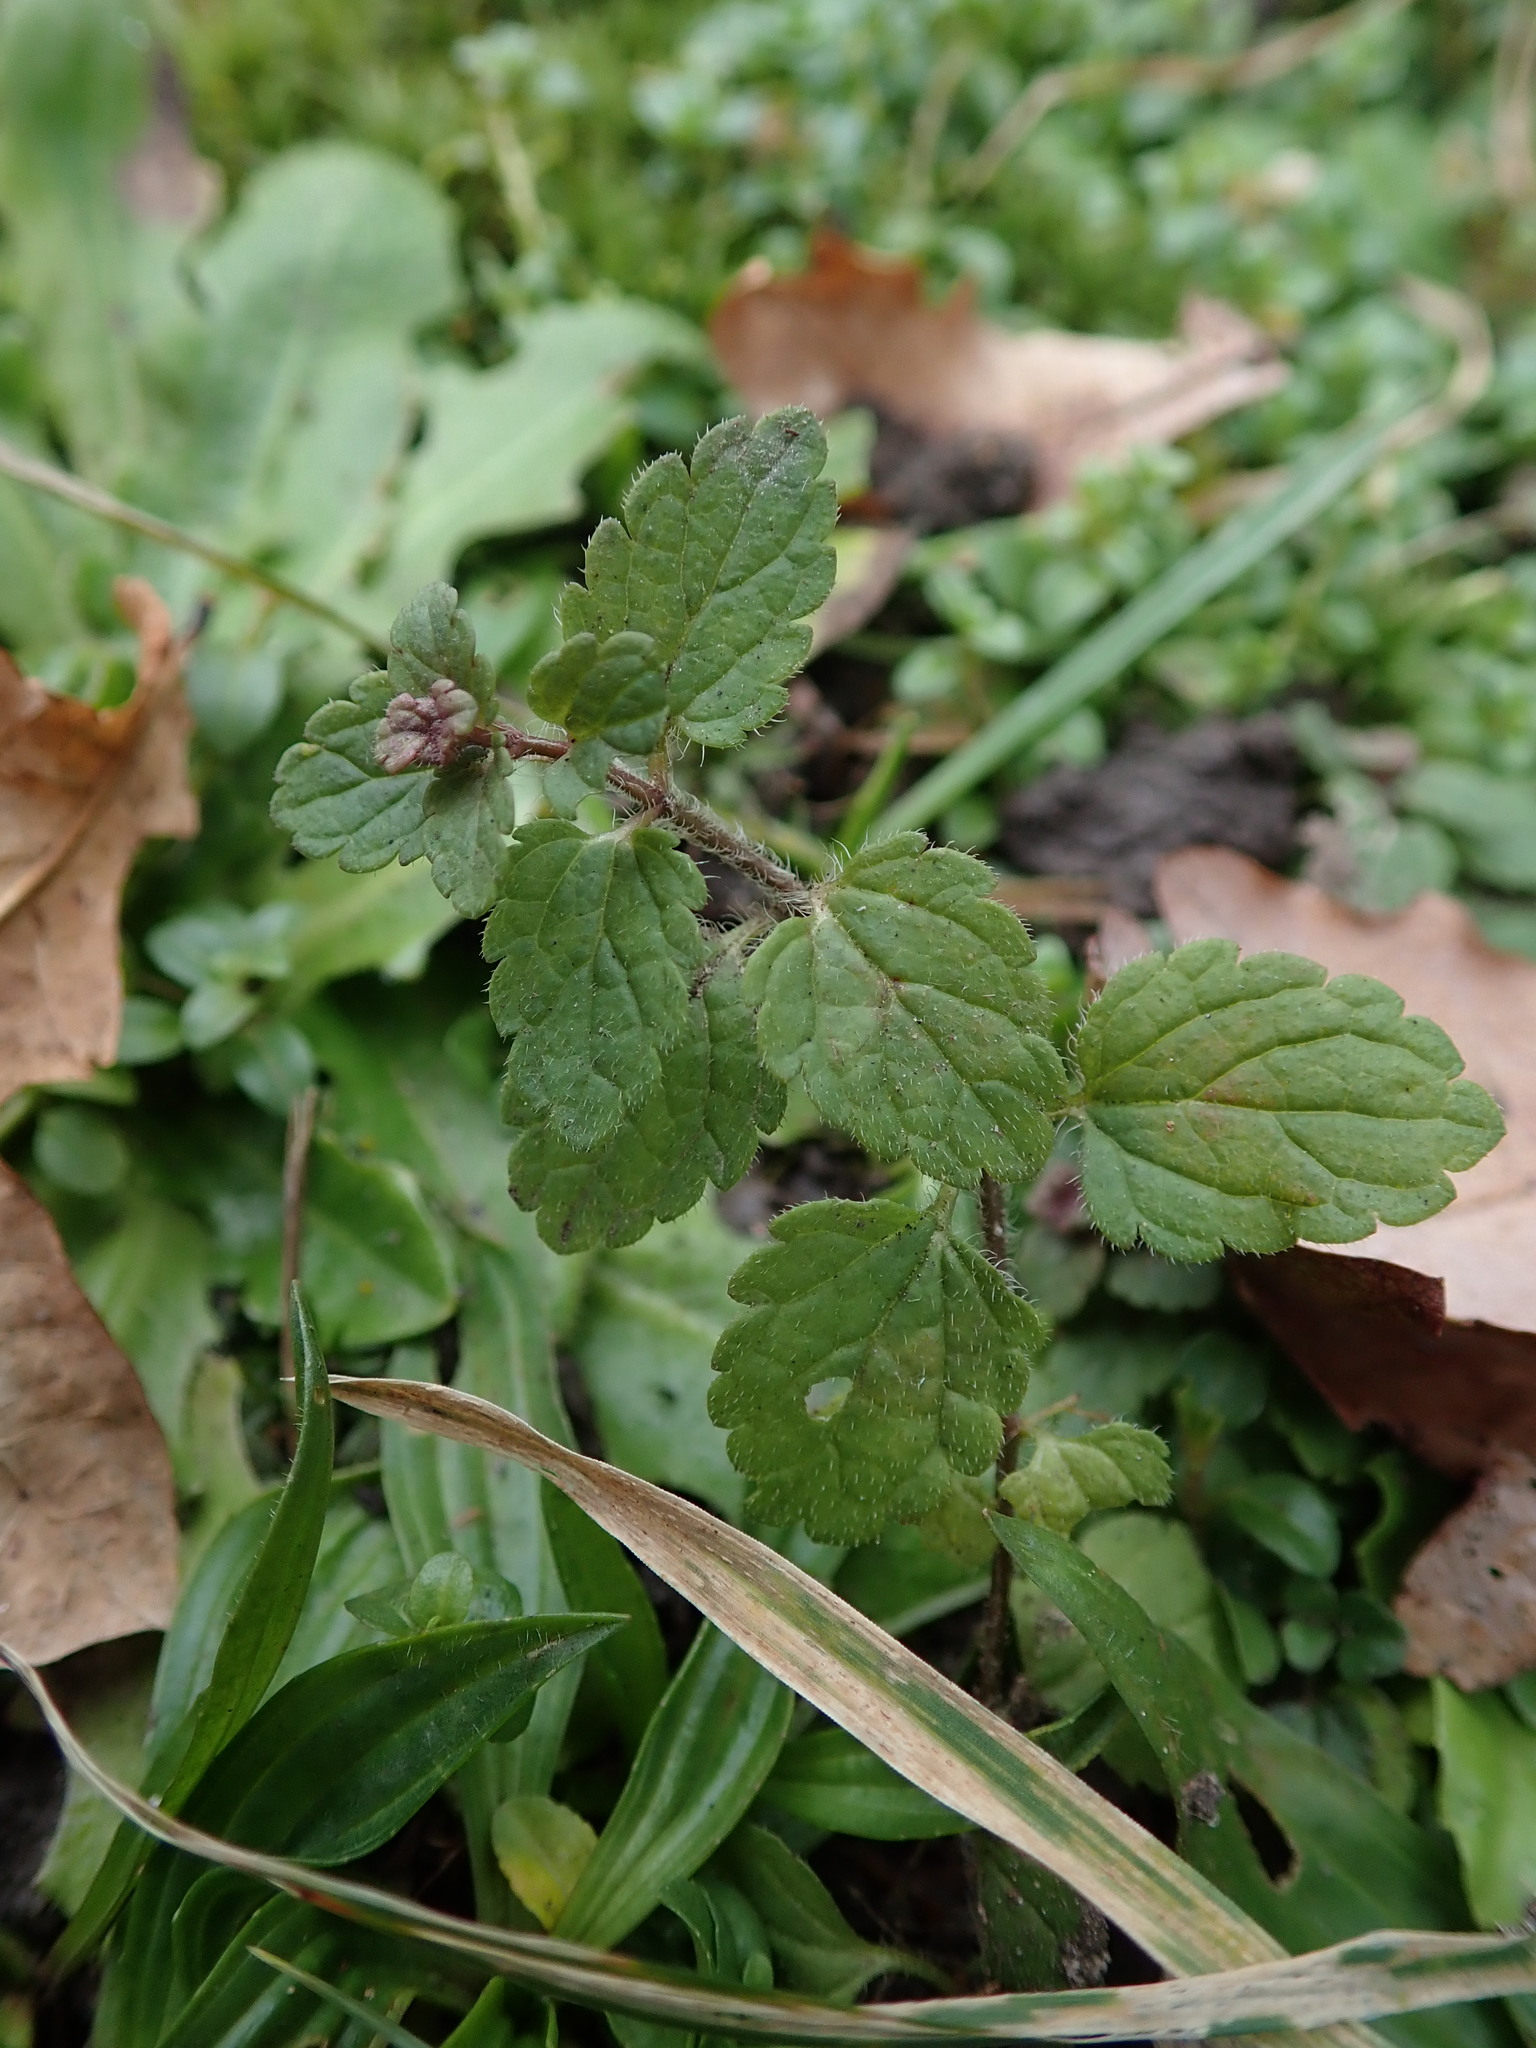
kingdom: Plantae
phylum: Tracheophyta
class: Magnoliopsida
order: Lamiales
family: Plantaginaceae
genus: Veronica
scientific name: Veronica chamaedrys
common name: Germander speedwell
